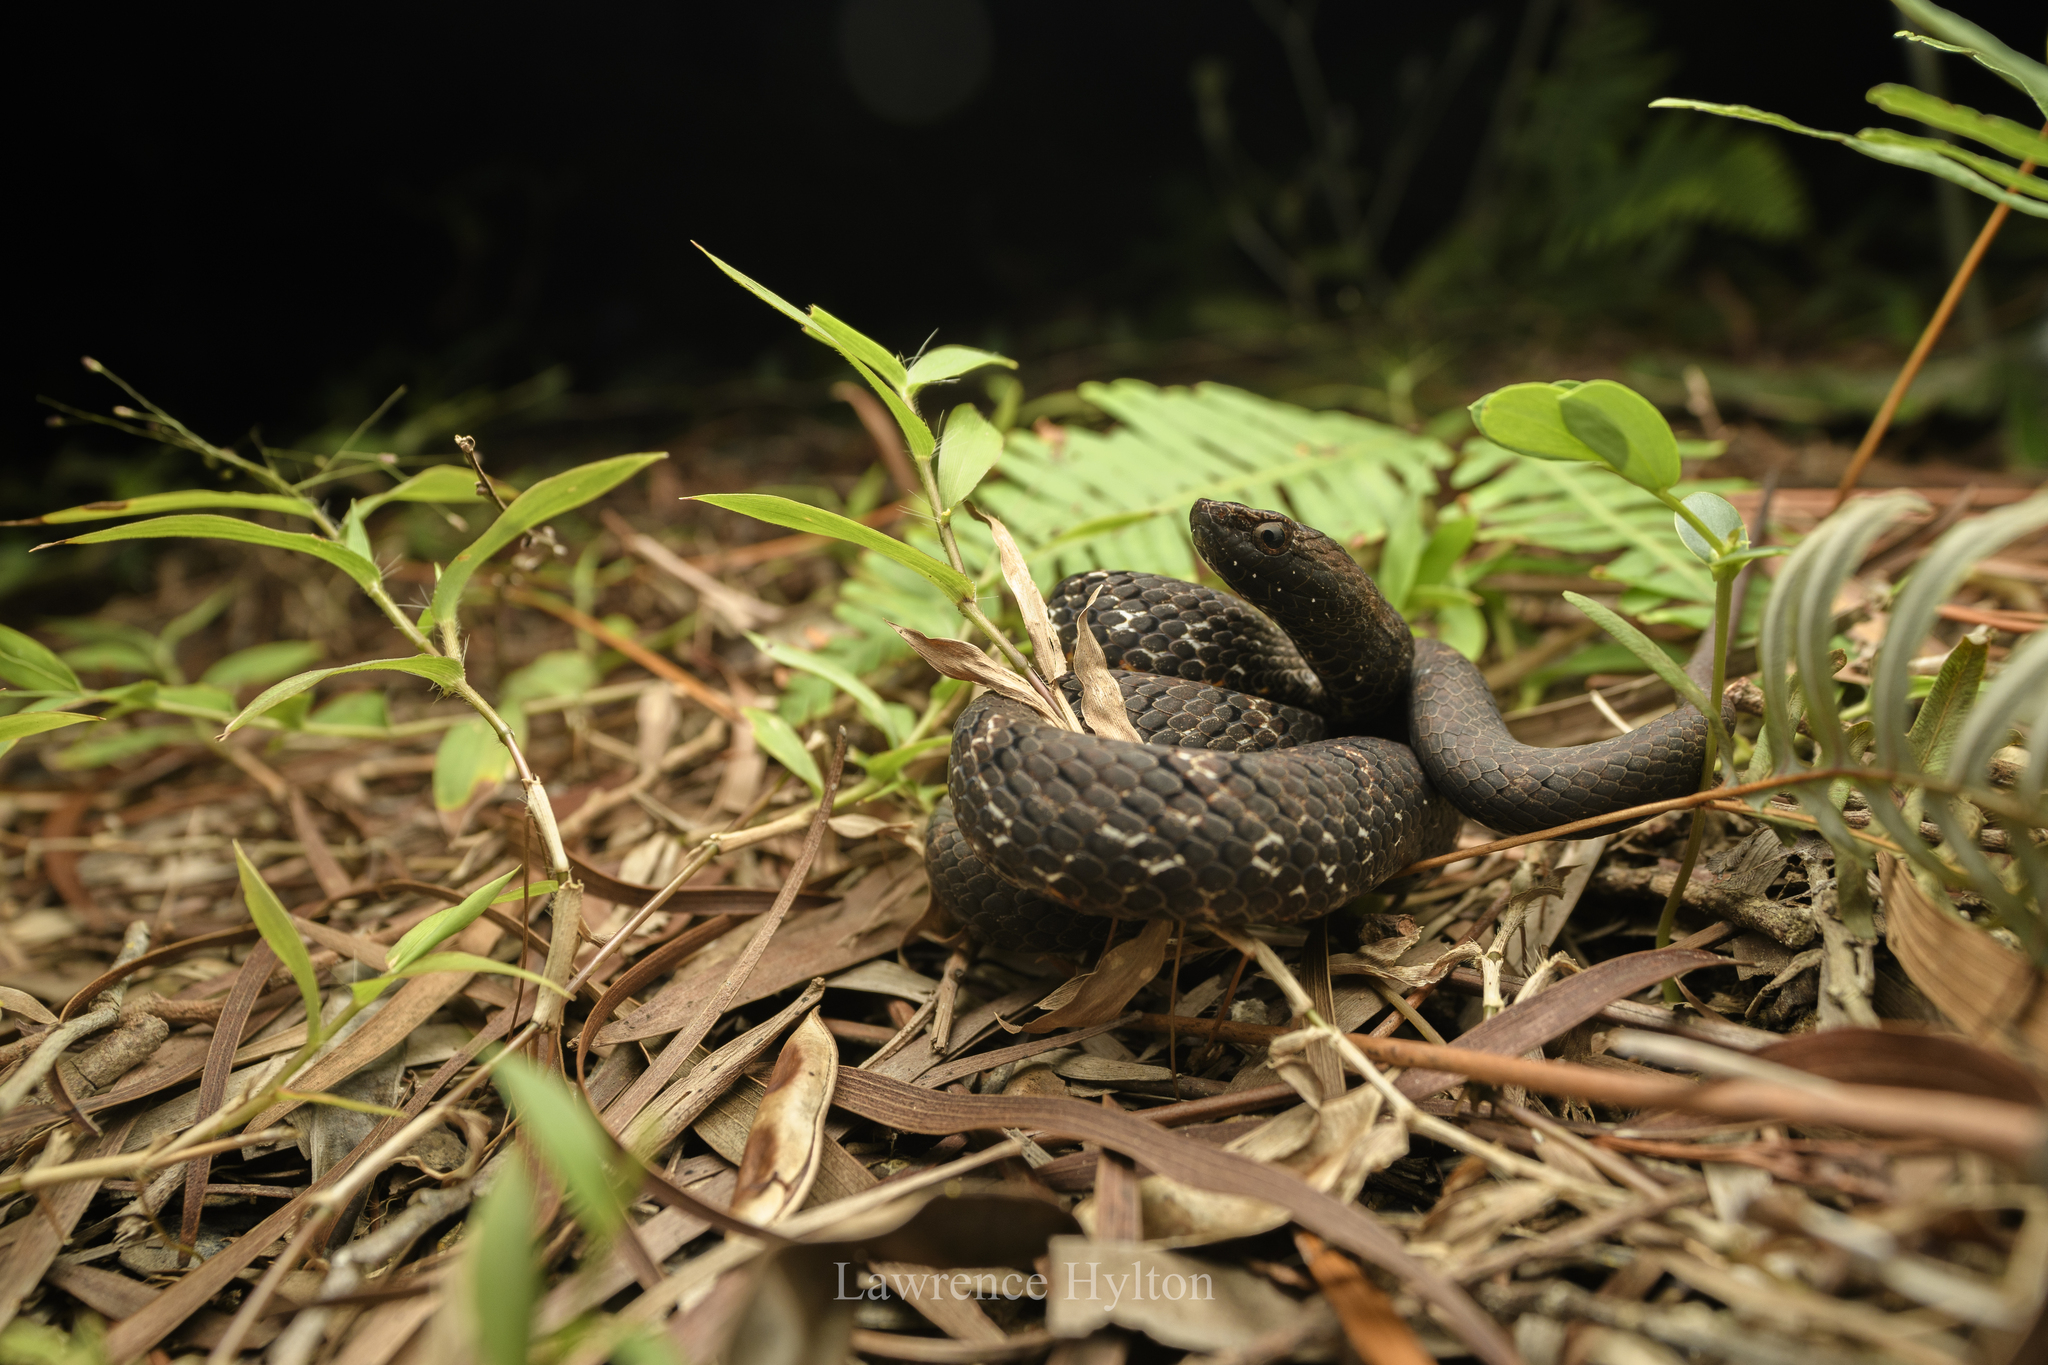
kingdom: Animalia
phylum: Chordata
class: Squamata
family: Pseudaspididae
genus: Psammodynastes
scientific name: Psammodynastes pulverulentus
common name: Common mock viper
